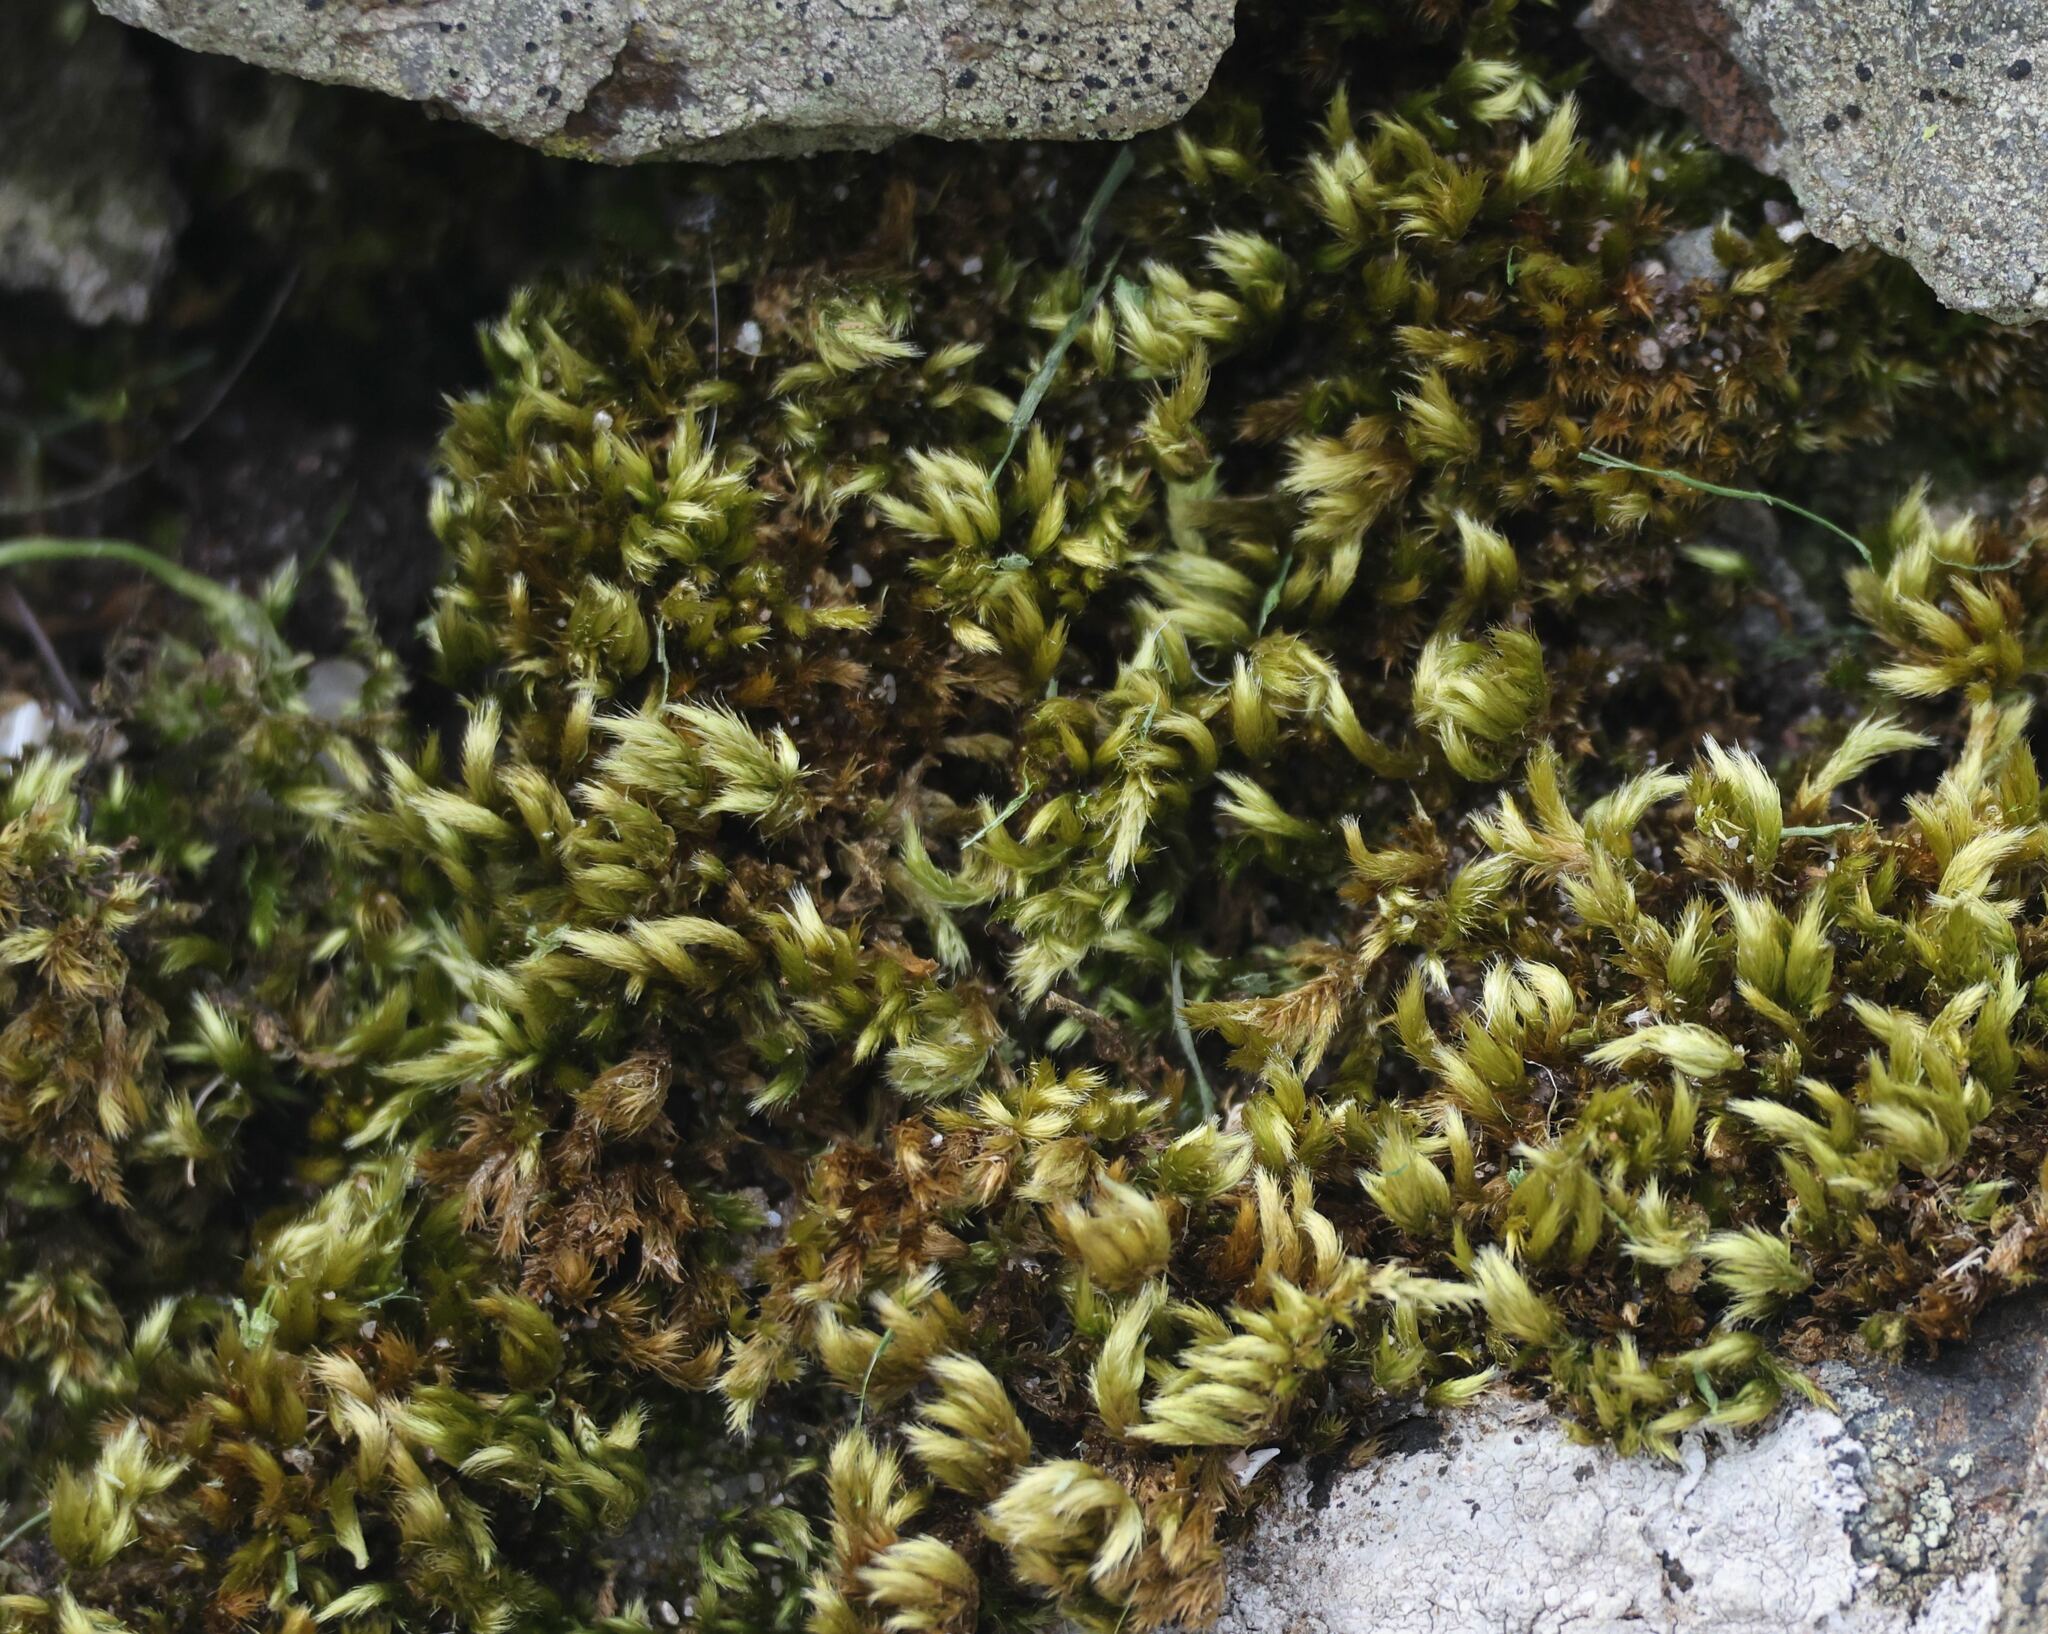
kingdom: Plantae
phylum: Bryophyta
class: Bryopsida
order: Hypnales
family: Brachytheciaceae
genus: Homalothecium
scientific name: Homalothecium sericeum
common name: Silky wall feather-moss
